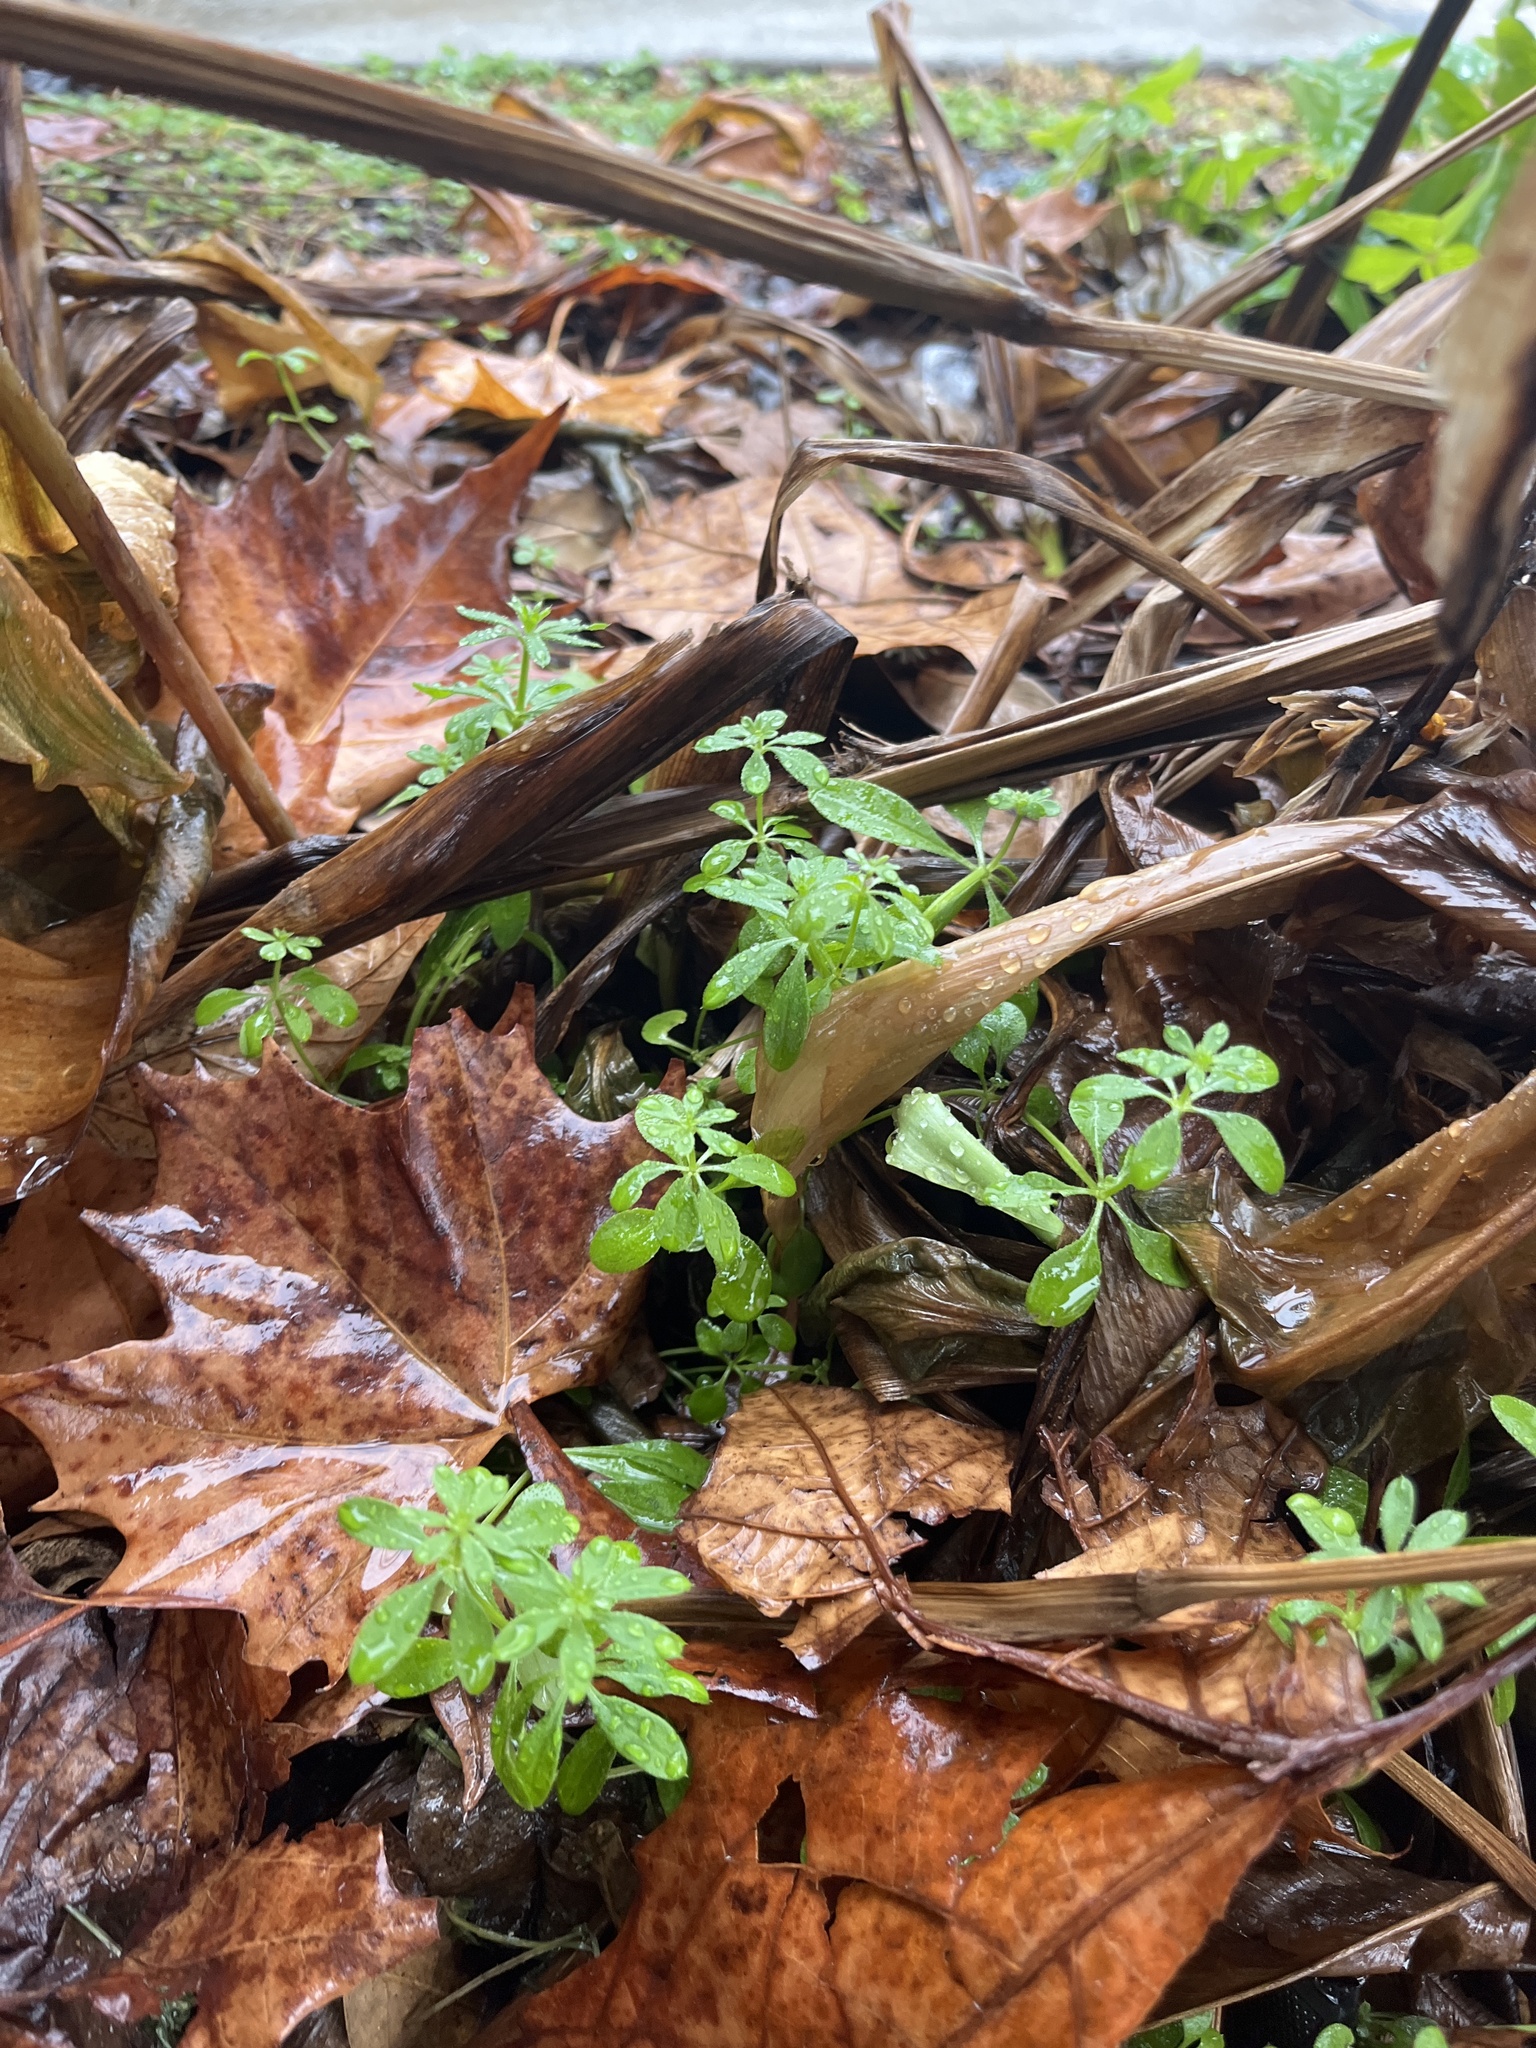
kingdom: Plantae
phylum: Tracheophyta
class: Magnoliopsida
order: Gentianales
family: Rubiaceae
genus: Galium
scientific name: Galium aparine
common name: Cleavers
